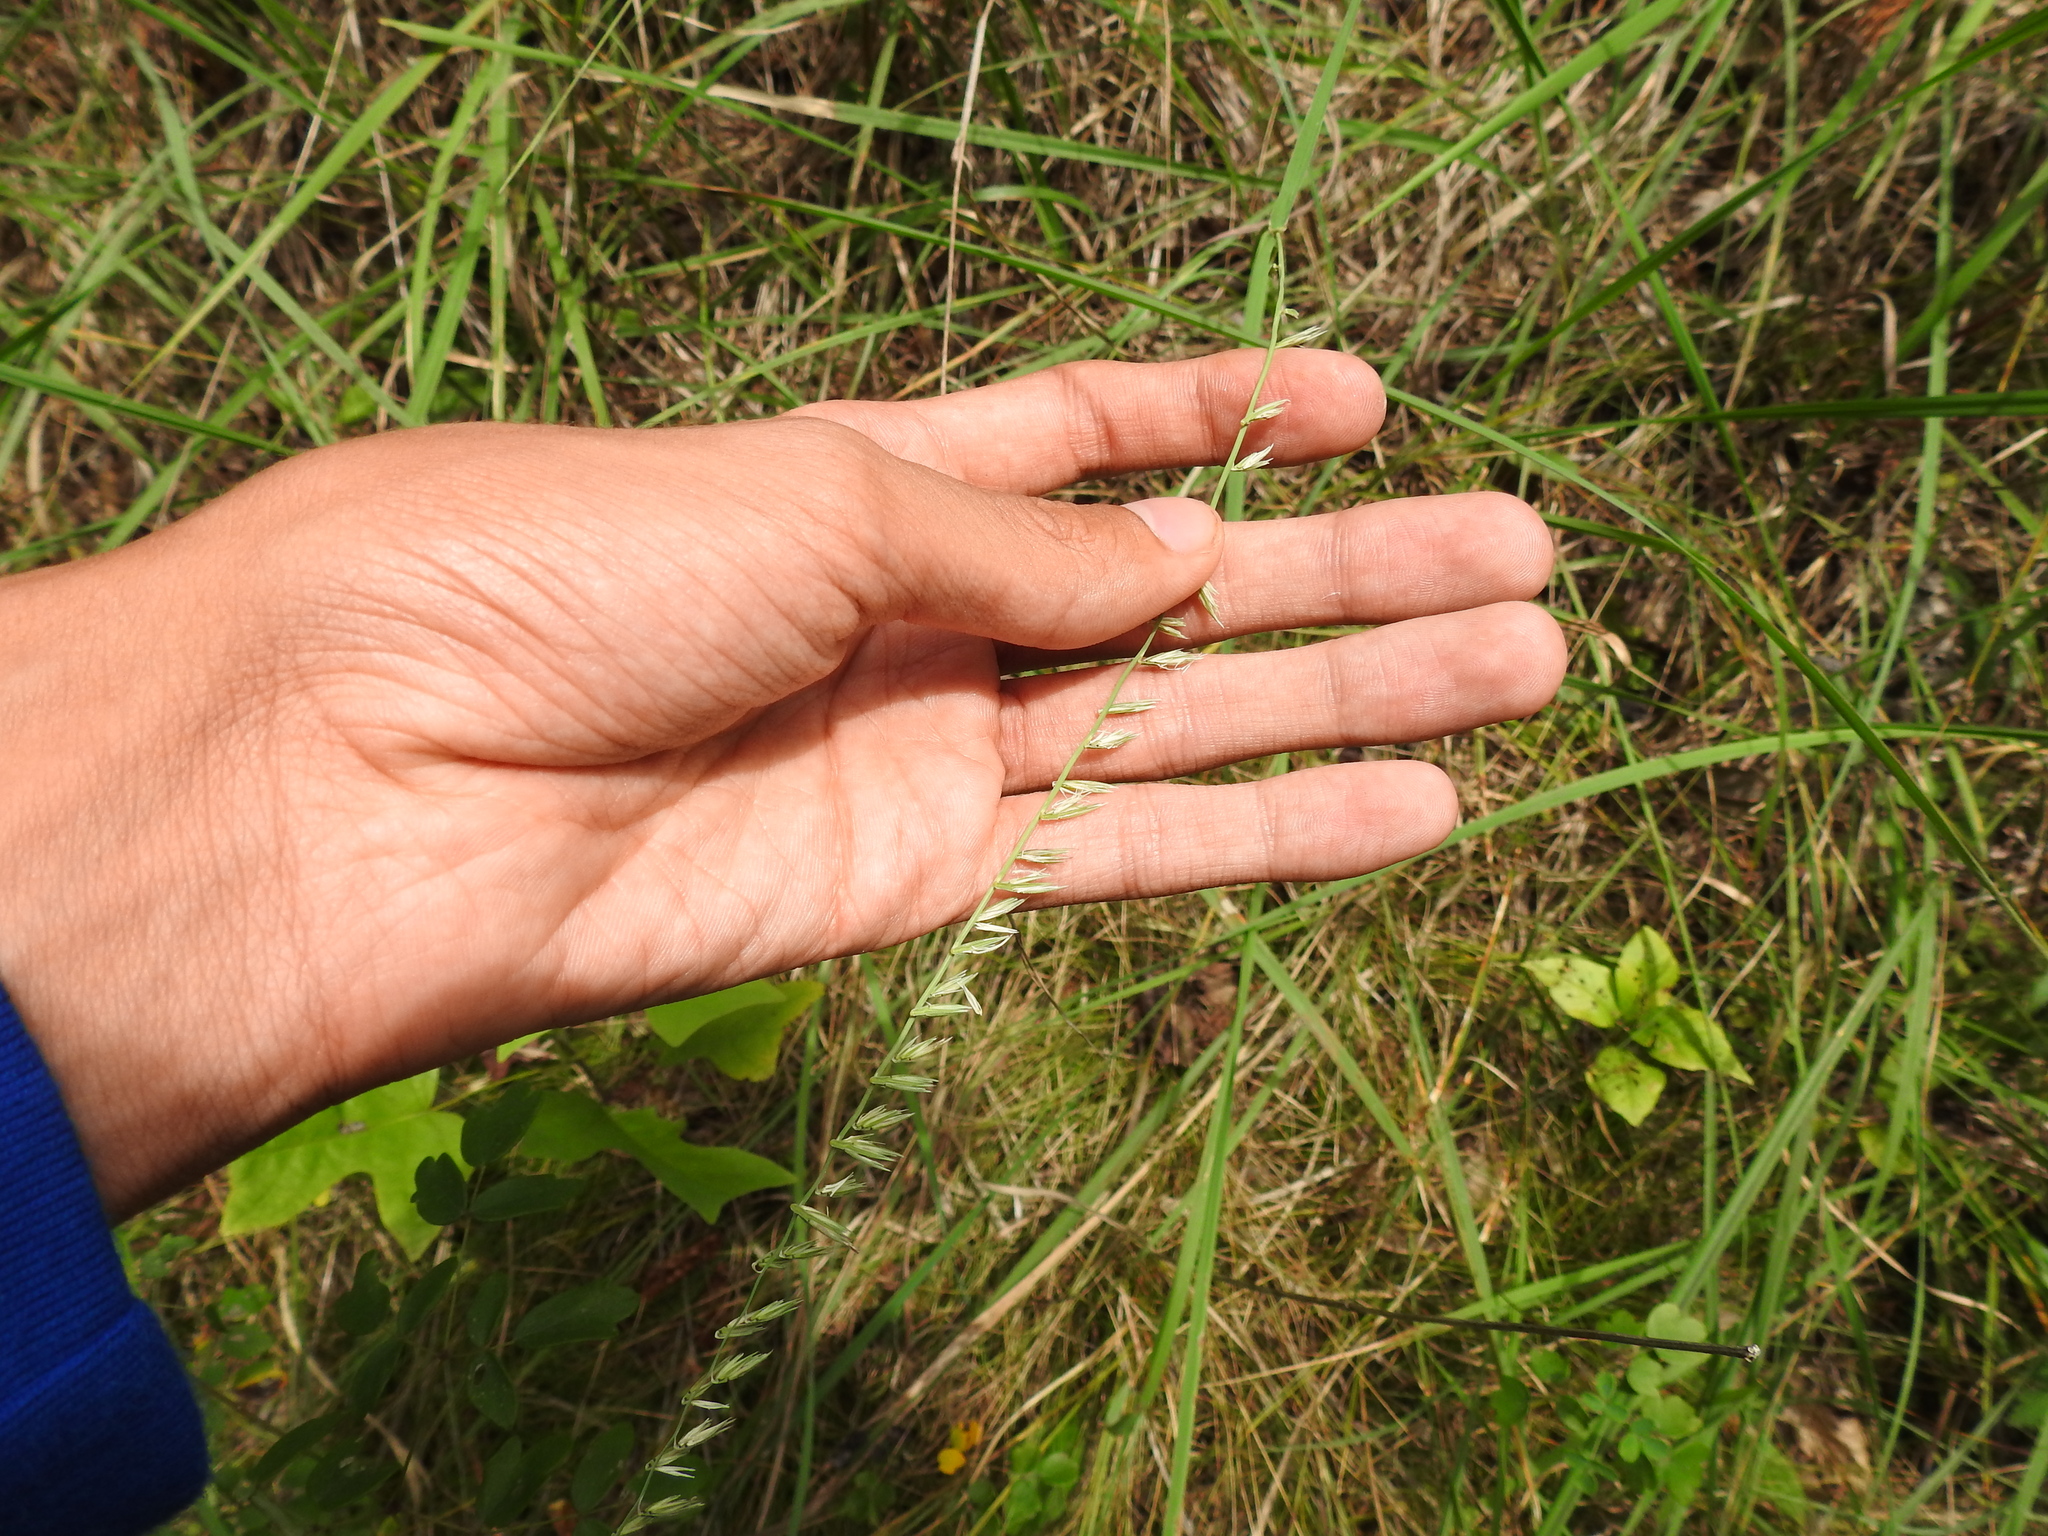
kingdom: Plantae
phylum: Tracheophyta
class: Liliopsida
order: Poales
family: Poaceae
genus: Bouteloua
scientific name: Bouteloua curtipendula
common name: Side-oats grama
